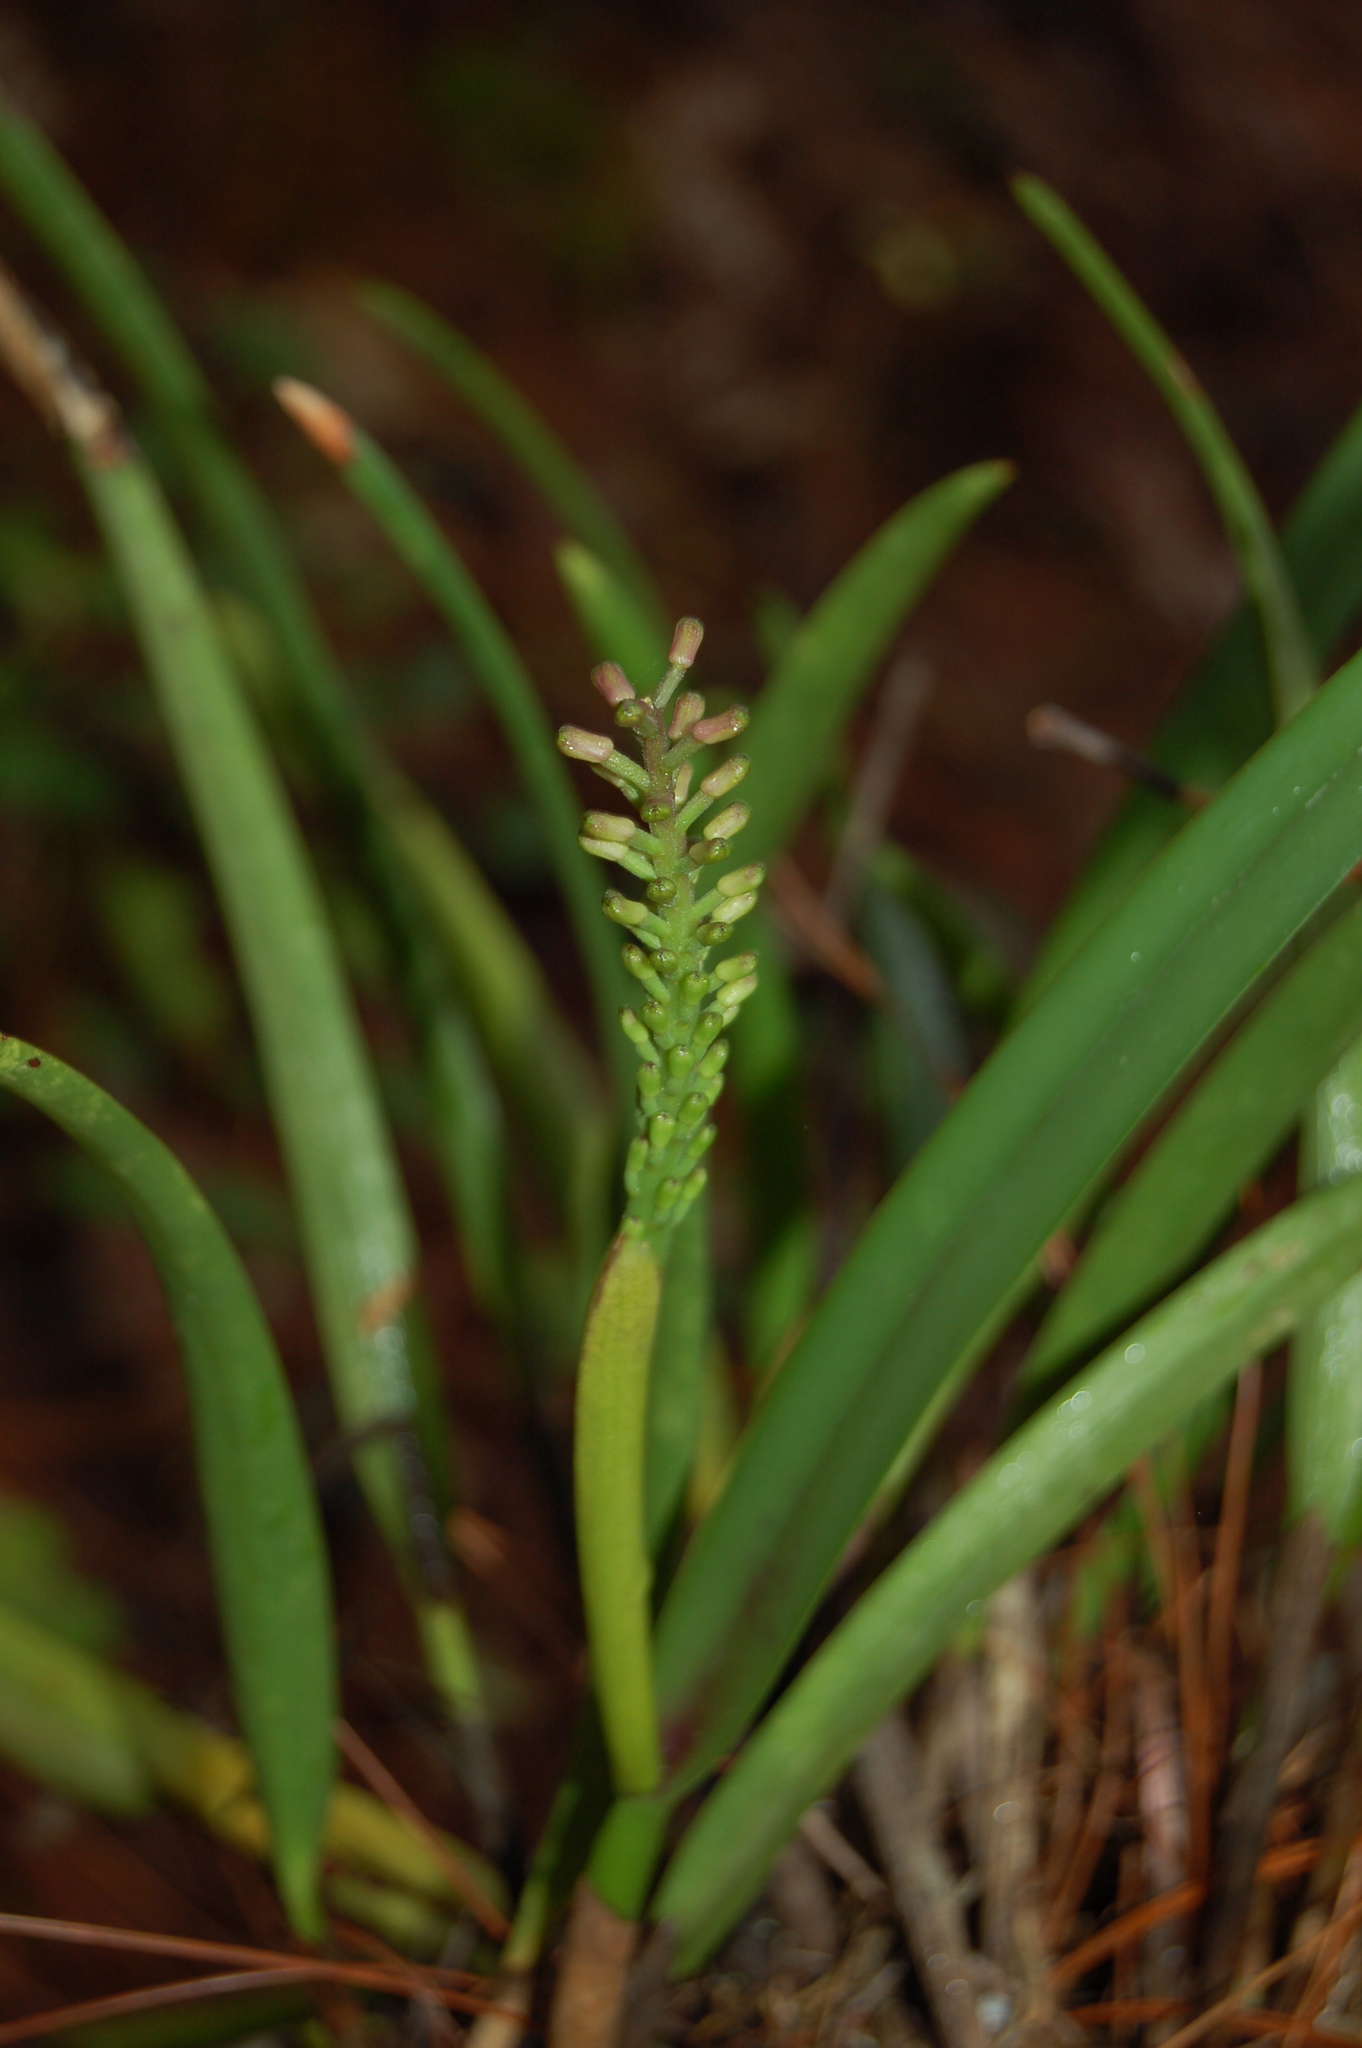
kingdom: Plantae
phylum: Tracheophyta
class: Liliopsida
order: Asparagales
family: Orchidaceae
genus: Arpophyllum
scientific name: Arpophyllum laxiflorum
